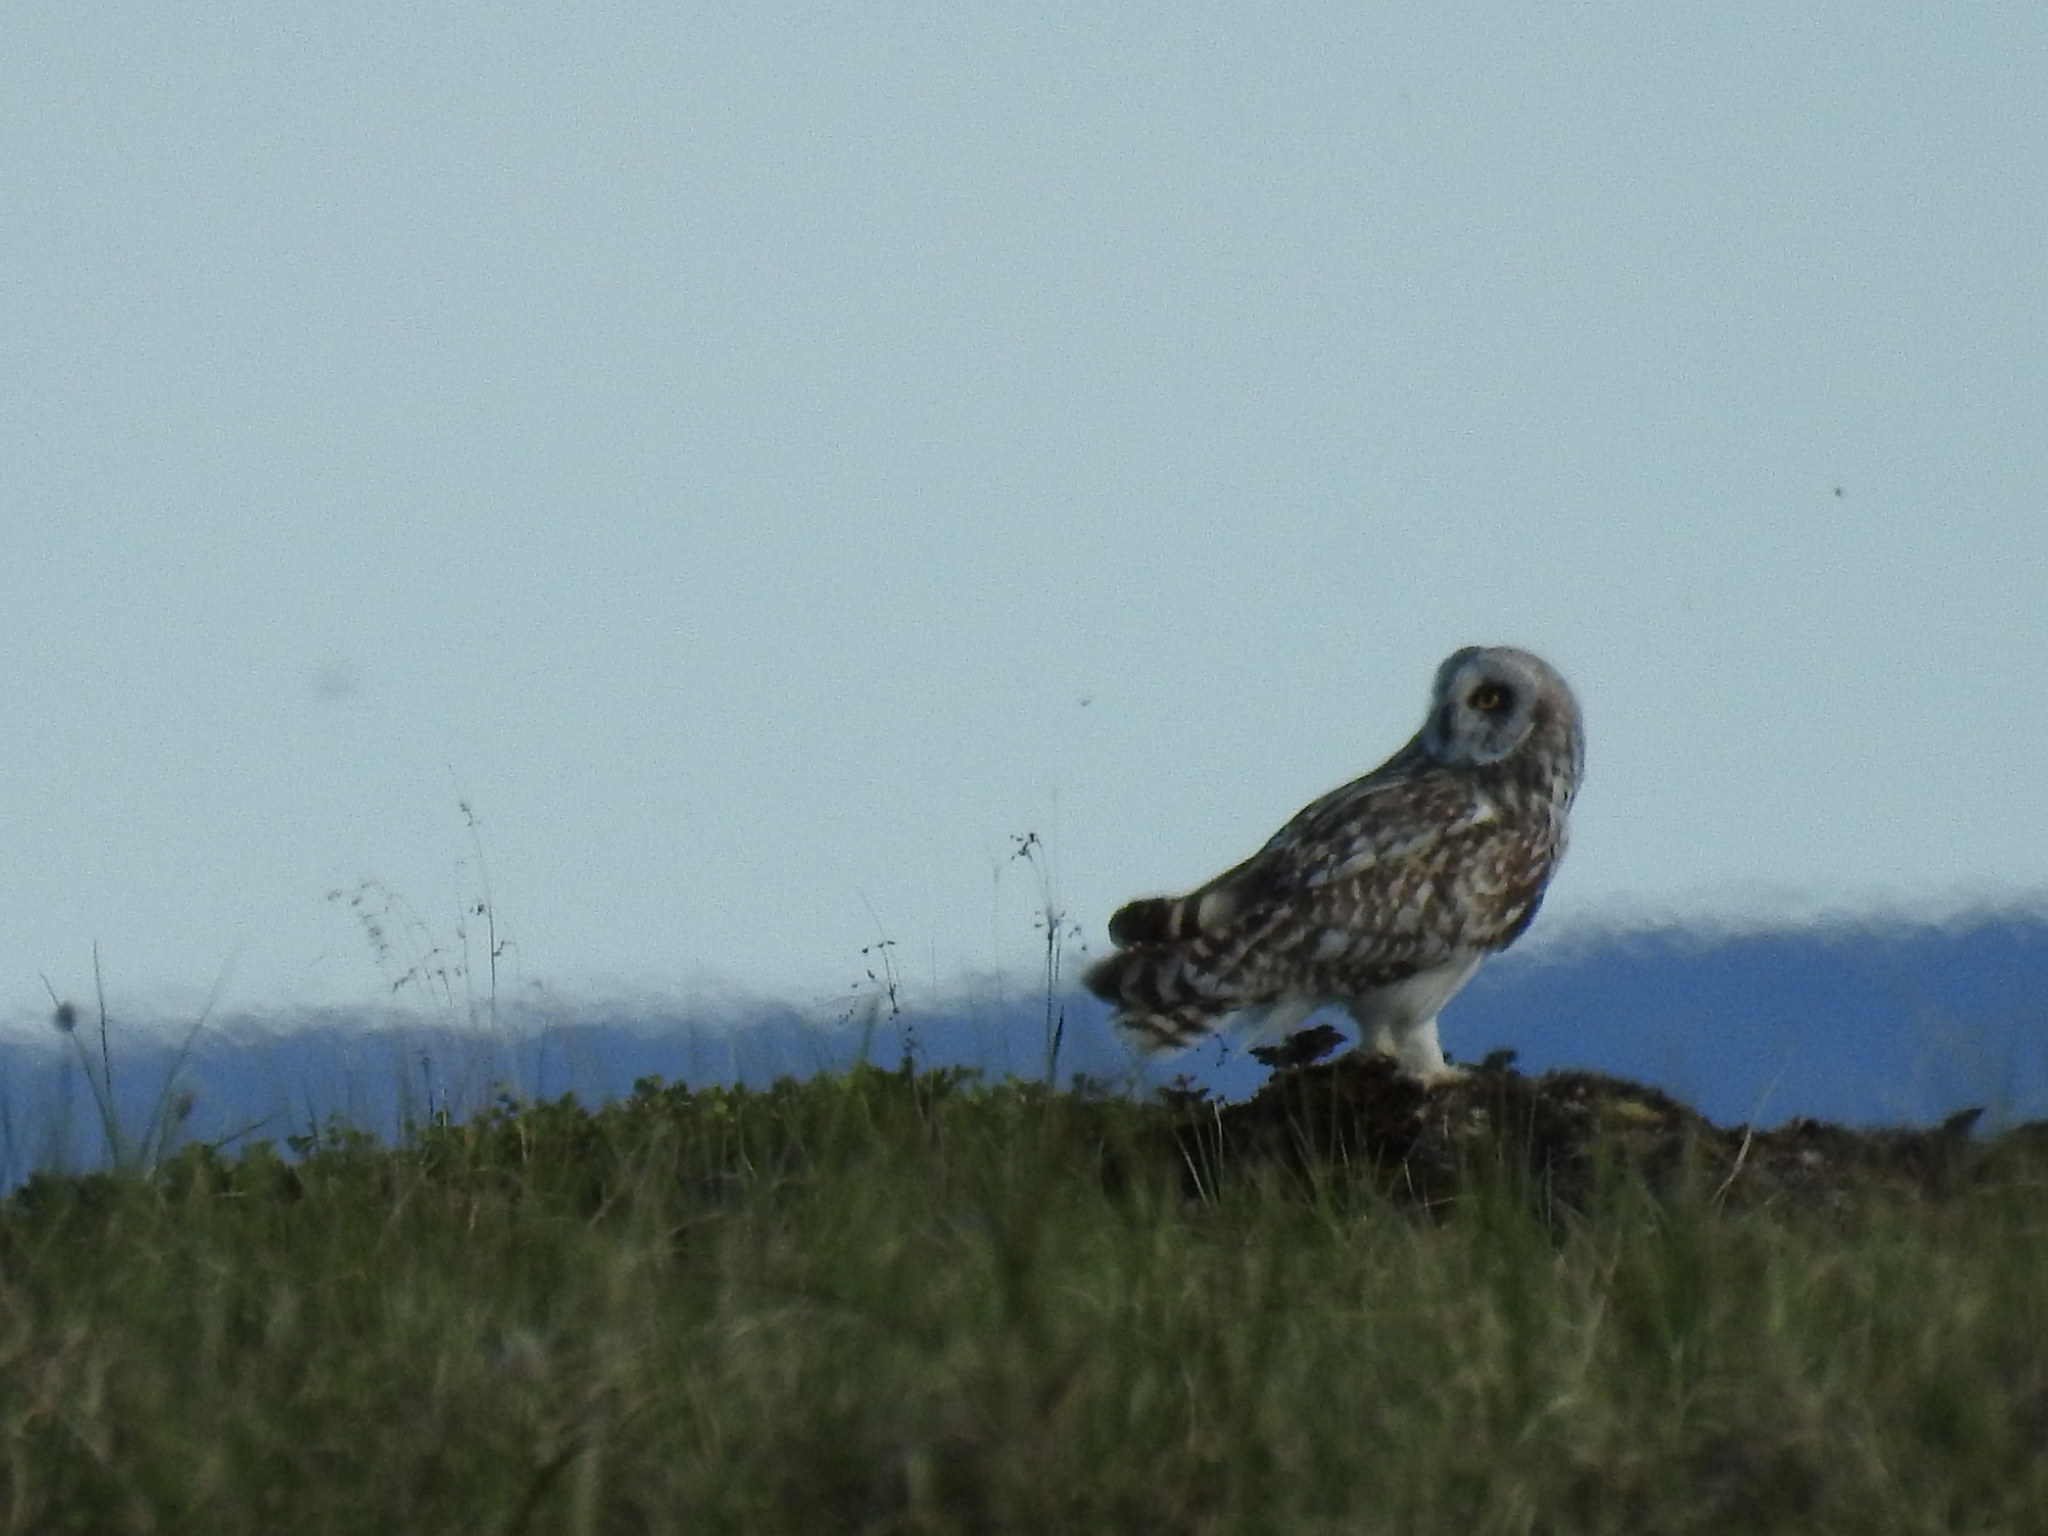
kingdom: Animalia
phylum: Chordata
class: Aves
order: Strigiformes
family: Strigidae
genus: Asio
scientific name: Asio flammeus
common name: Short-eared owl
